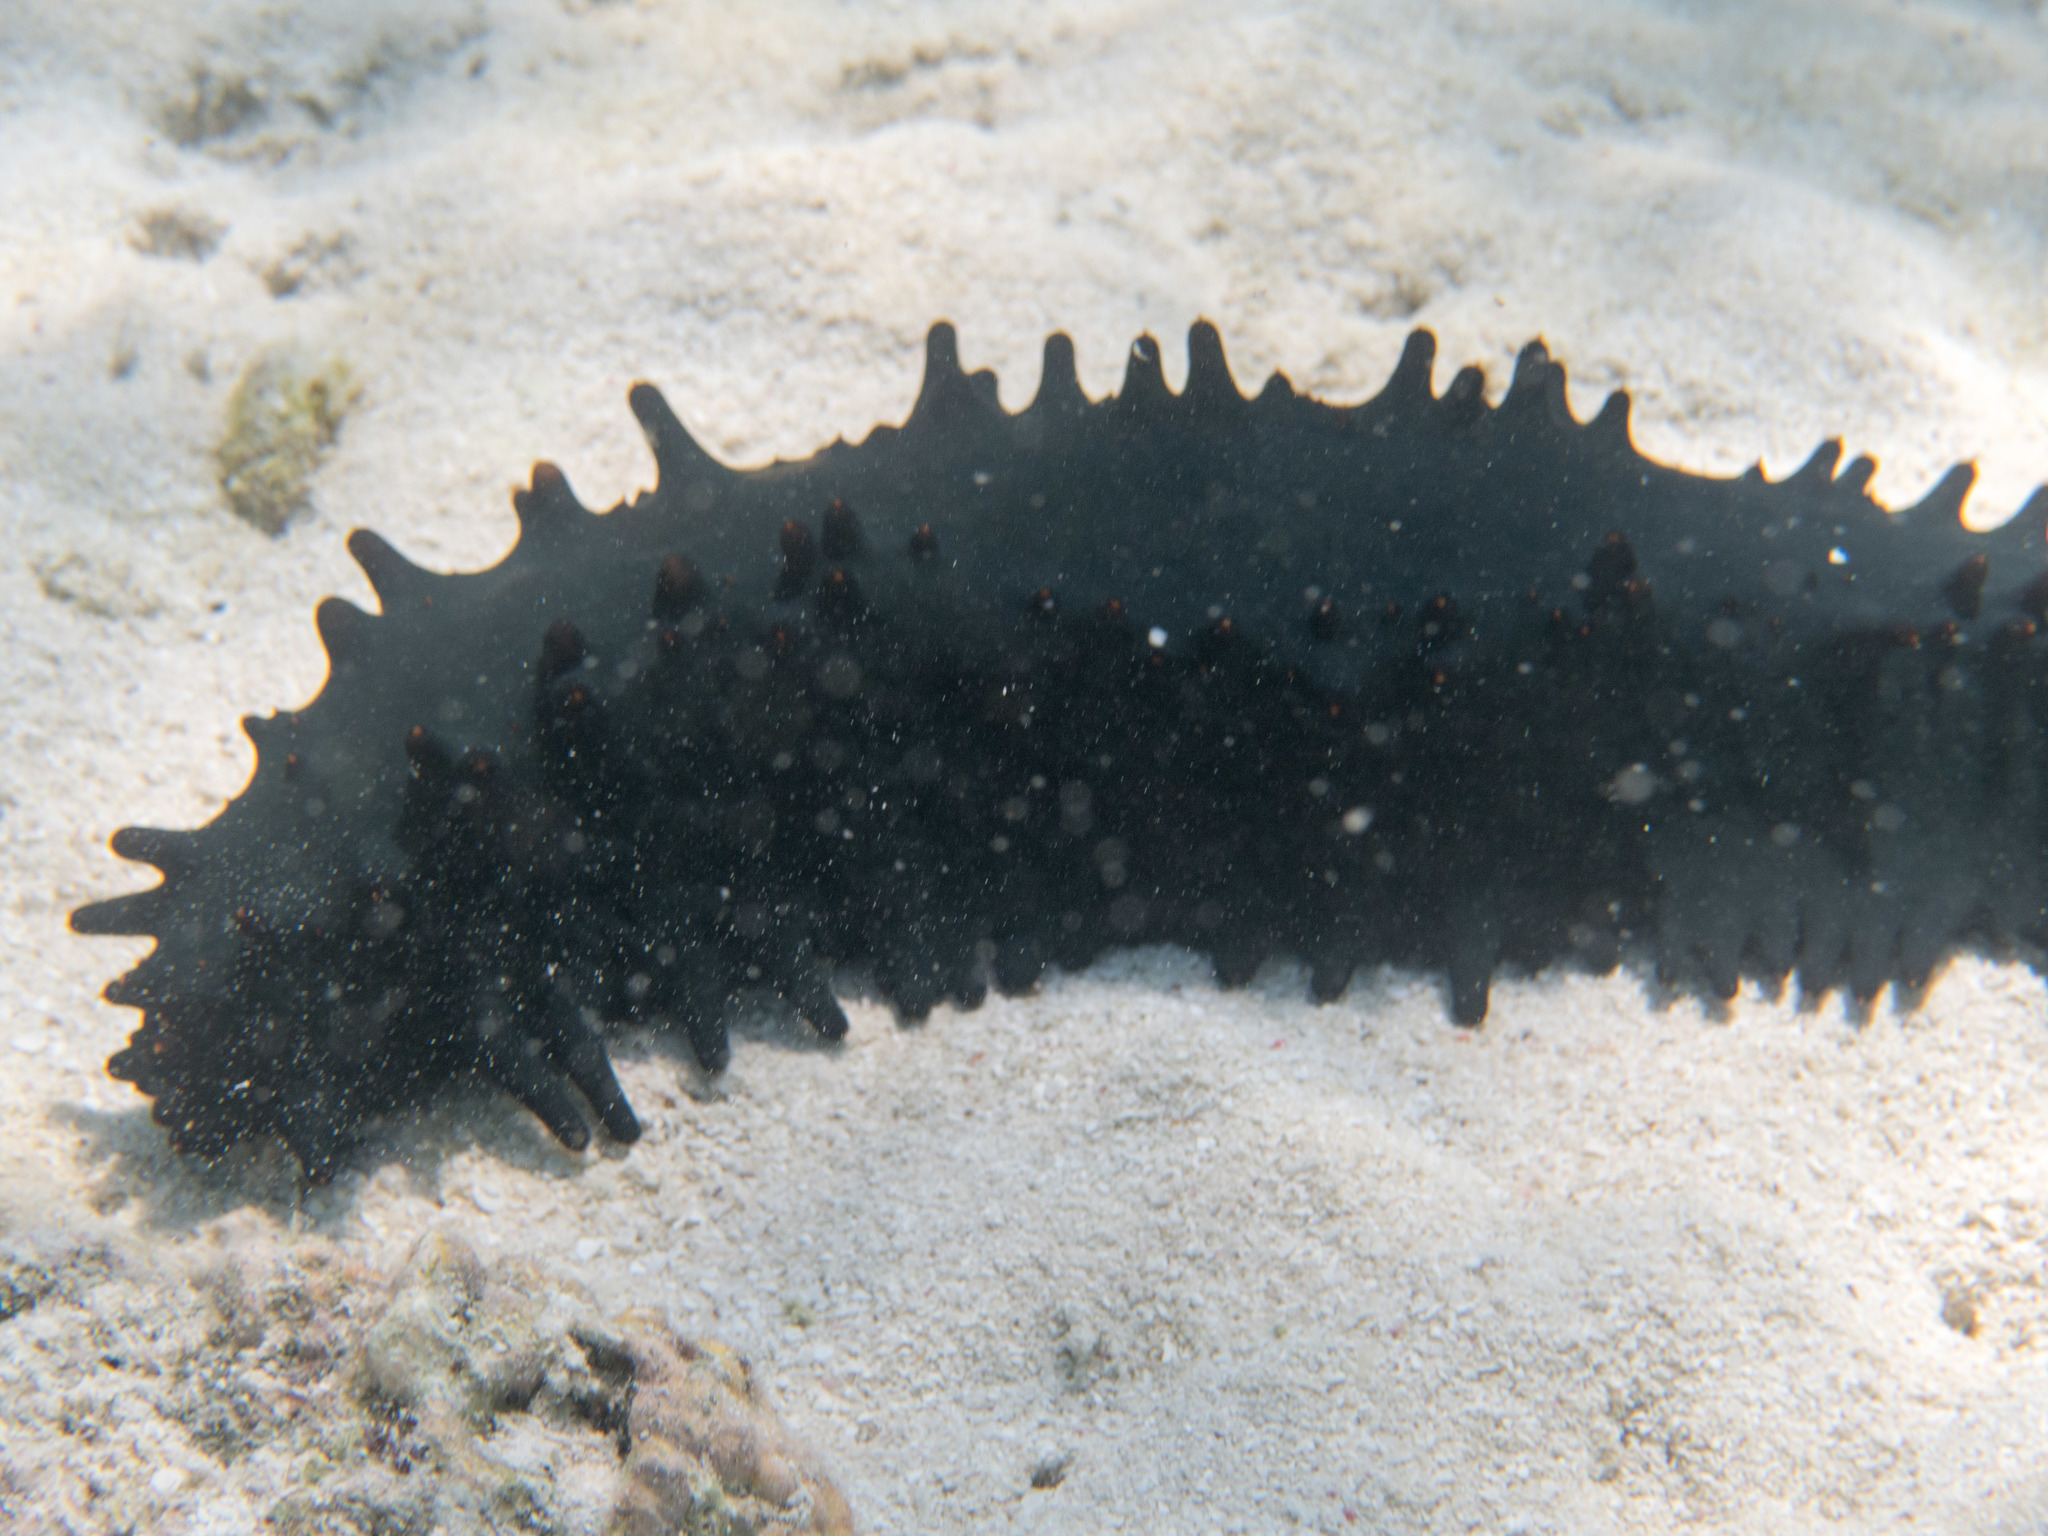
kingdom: Animalia
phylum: Echinodermata
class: Holothuroidea
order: Synallactida
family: Stichopodidae
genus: Stichopus
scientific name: Stichopus chloronotus
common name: Greenfish
